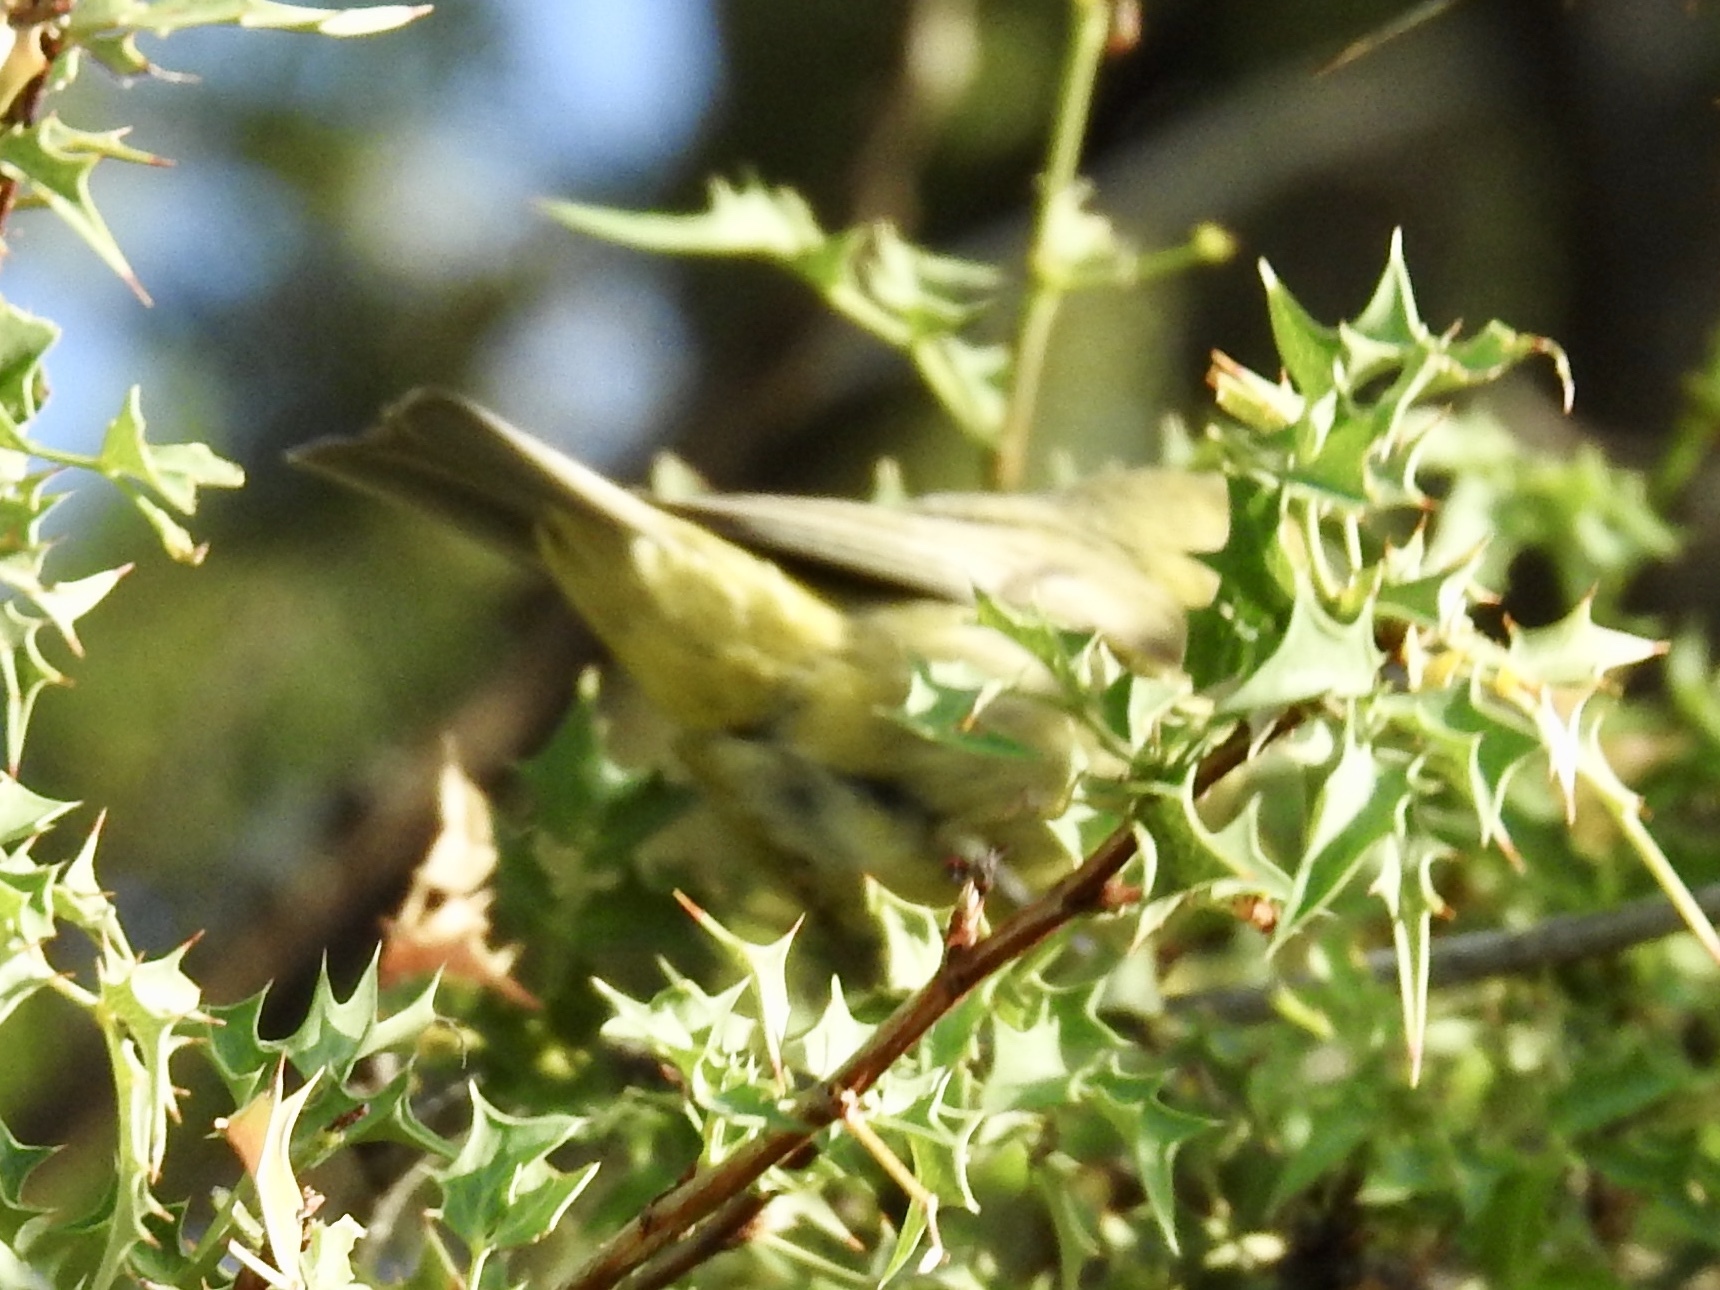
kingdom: Animalia
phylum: Chordata
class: Aves
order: Passeriformes
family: Parulidae
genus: Leiothlypis
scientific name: Leiothlypis celata
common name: Orange-crowned warbler
